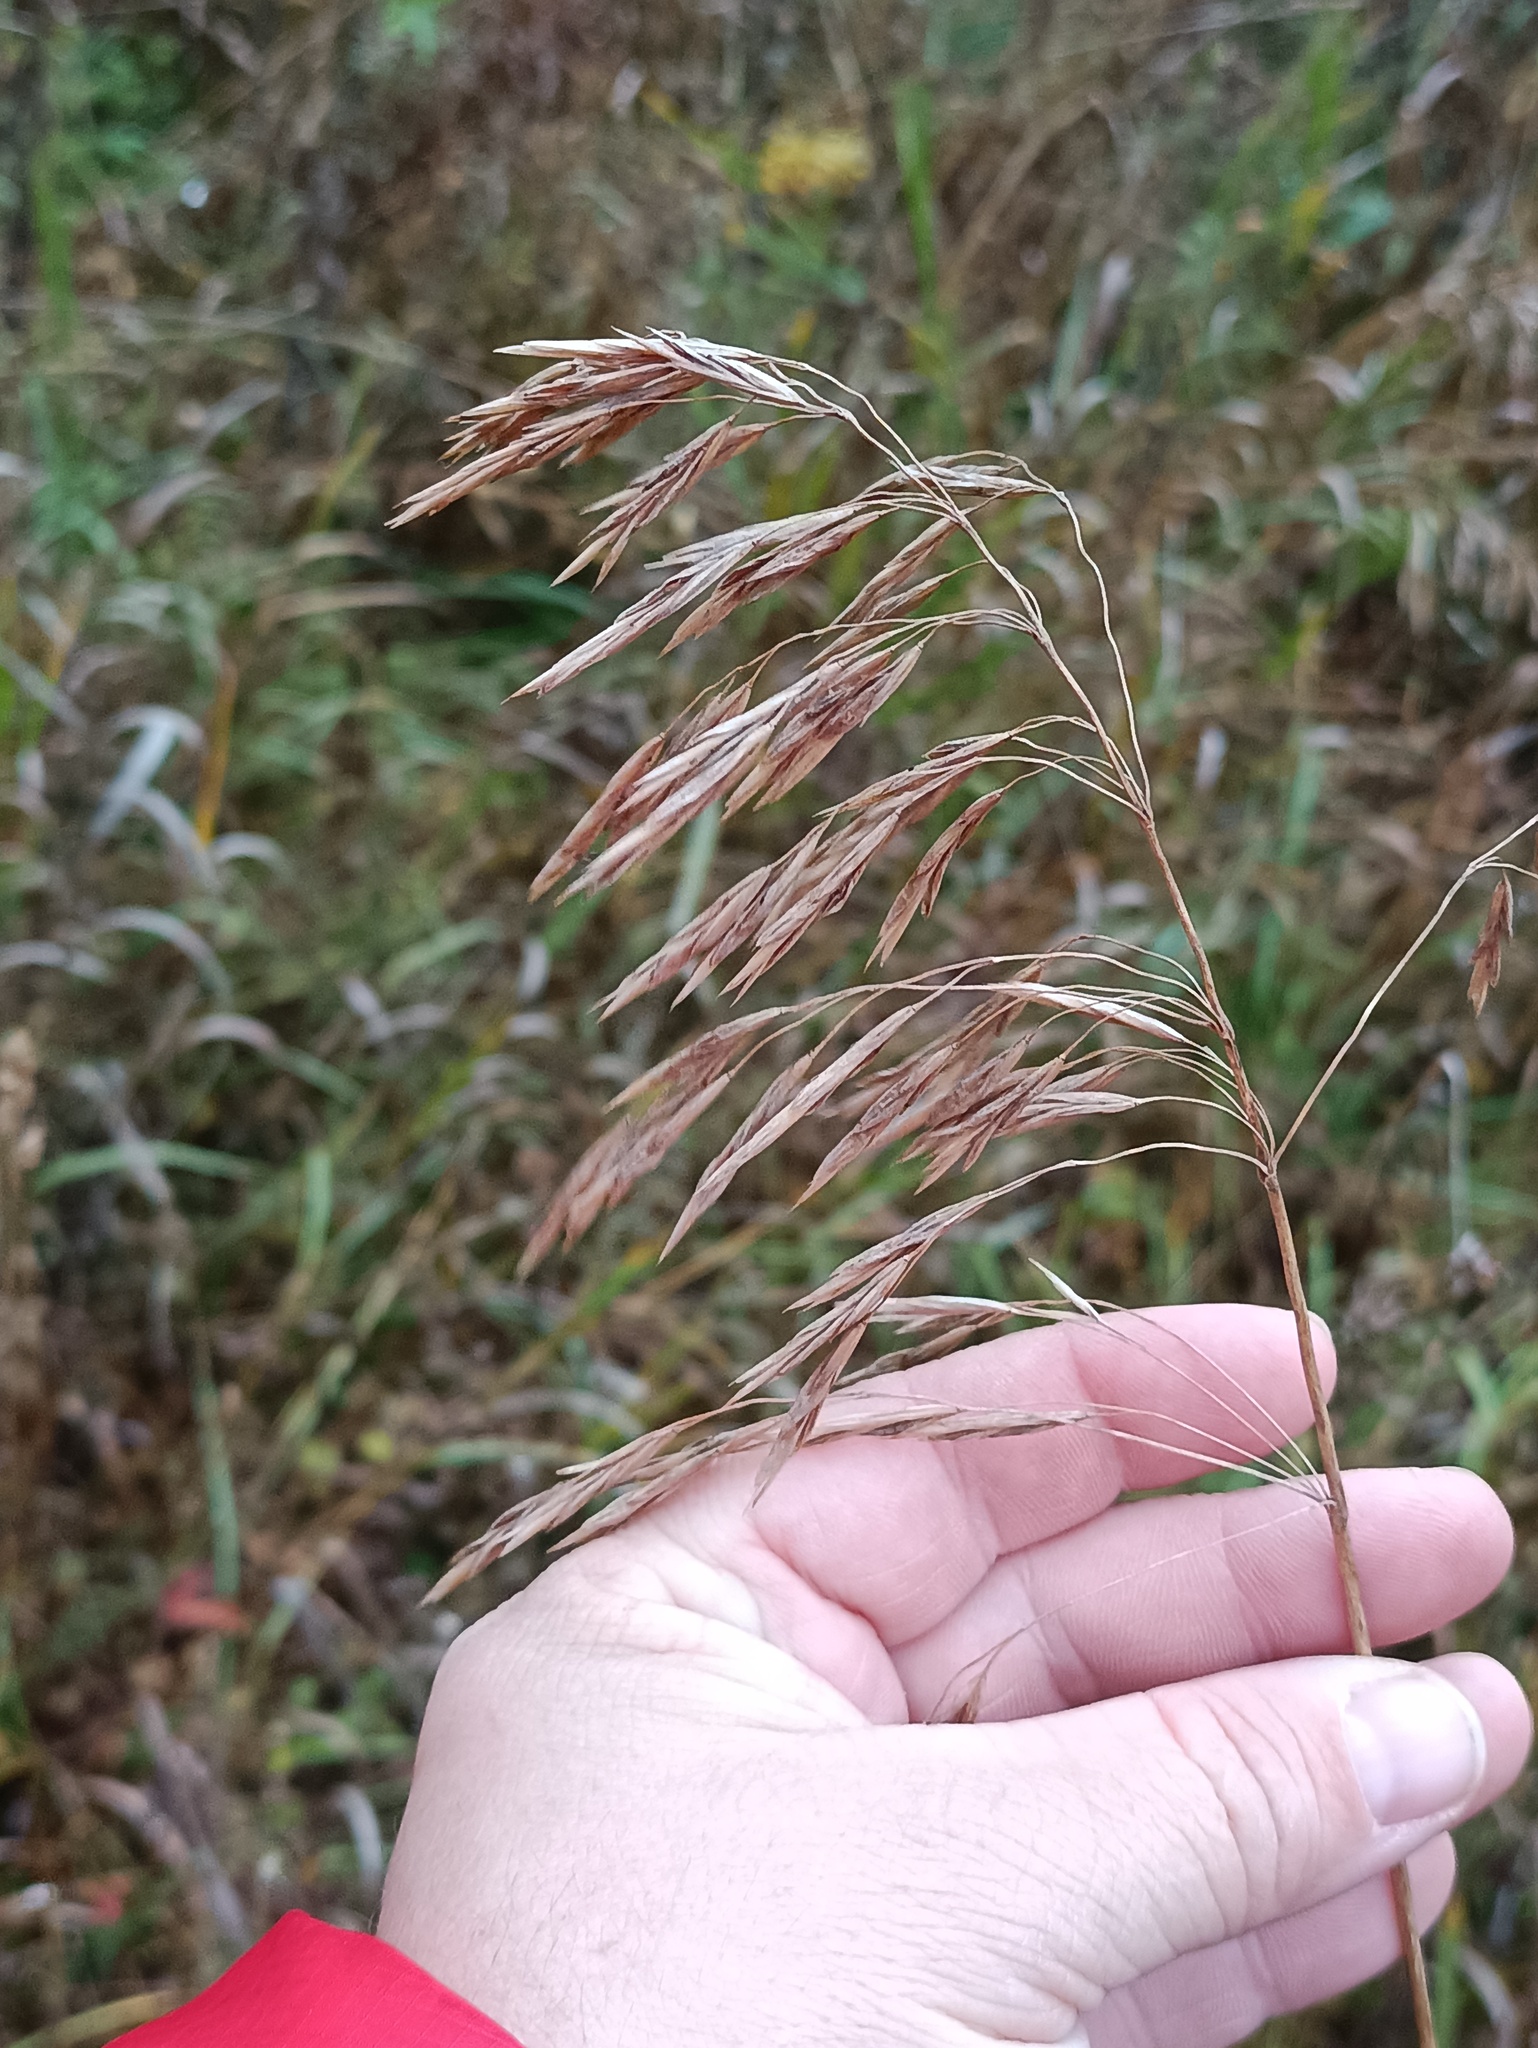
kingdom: Plantae
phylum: Tracheophyta
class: Liliopsida
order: Poales
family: Poaceae
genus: Bromus
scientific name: Bromus inermis
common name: Smooth brome
